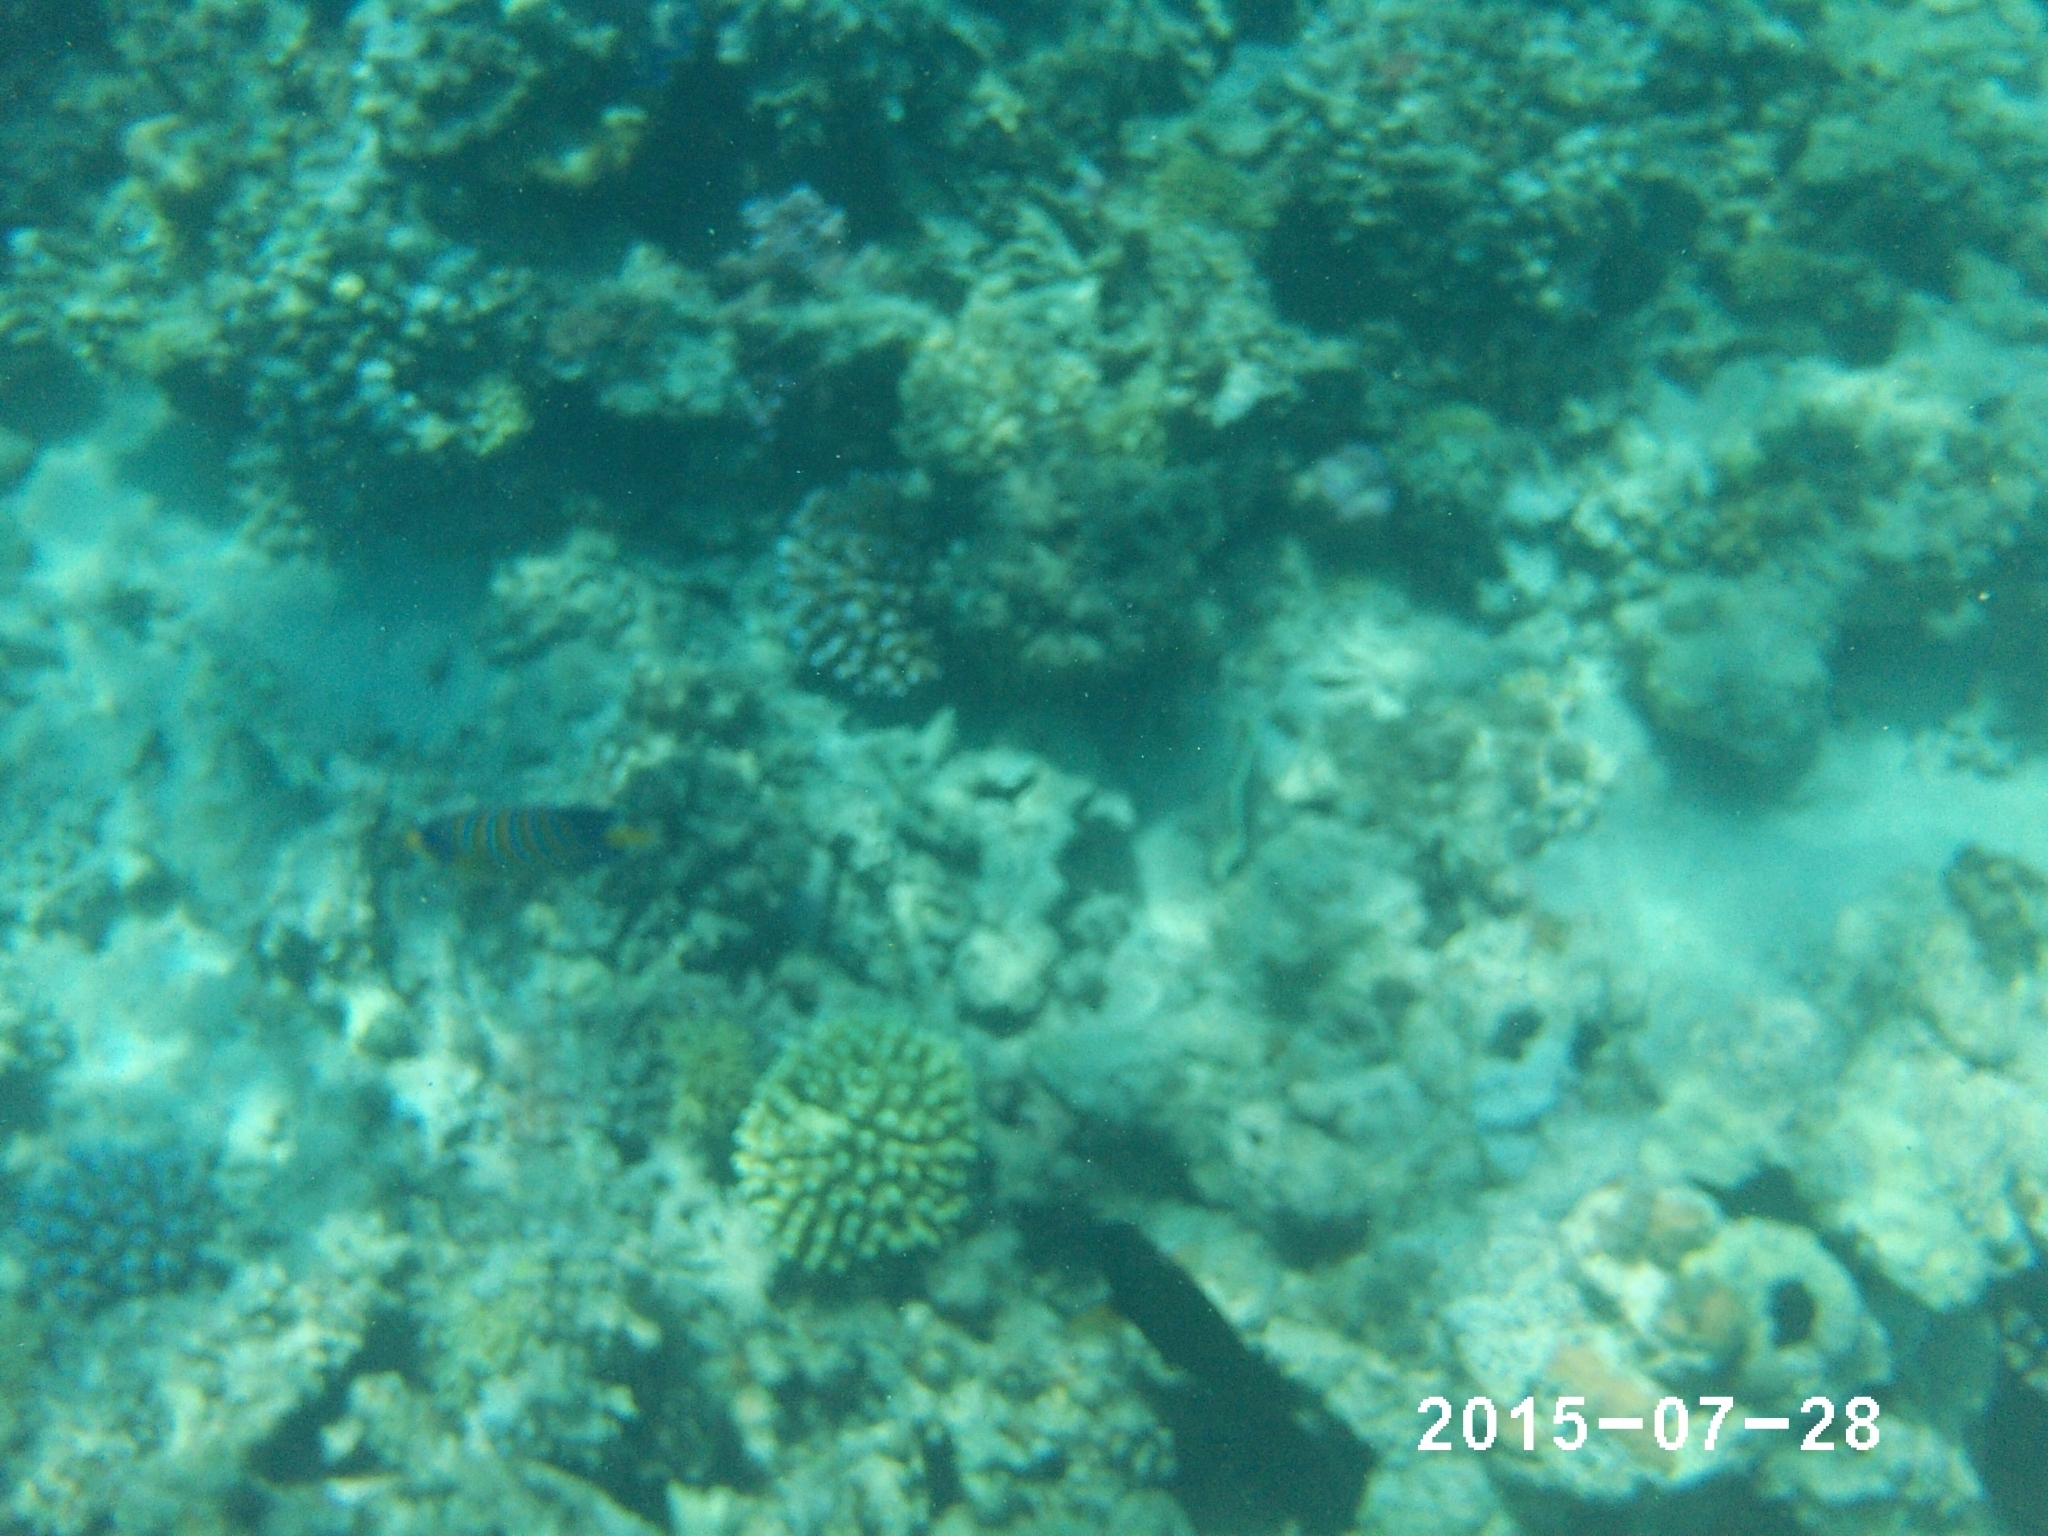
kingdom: Animalia
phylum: Chordata
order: Perciformes
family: Pomacanthidae
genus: Pygoplites
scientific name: Pygoplites diacanthus
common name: Regal angelfish
